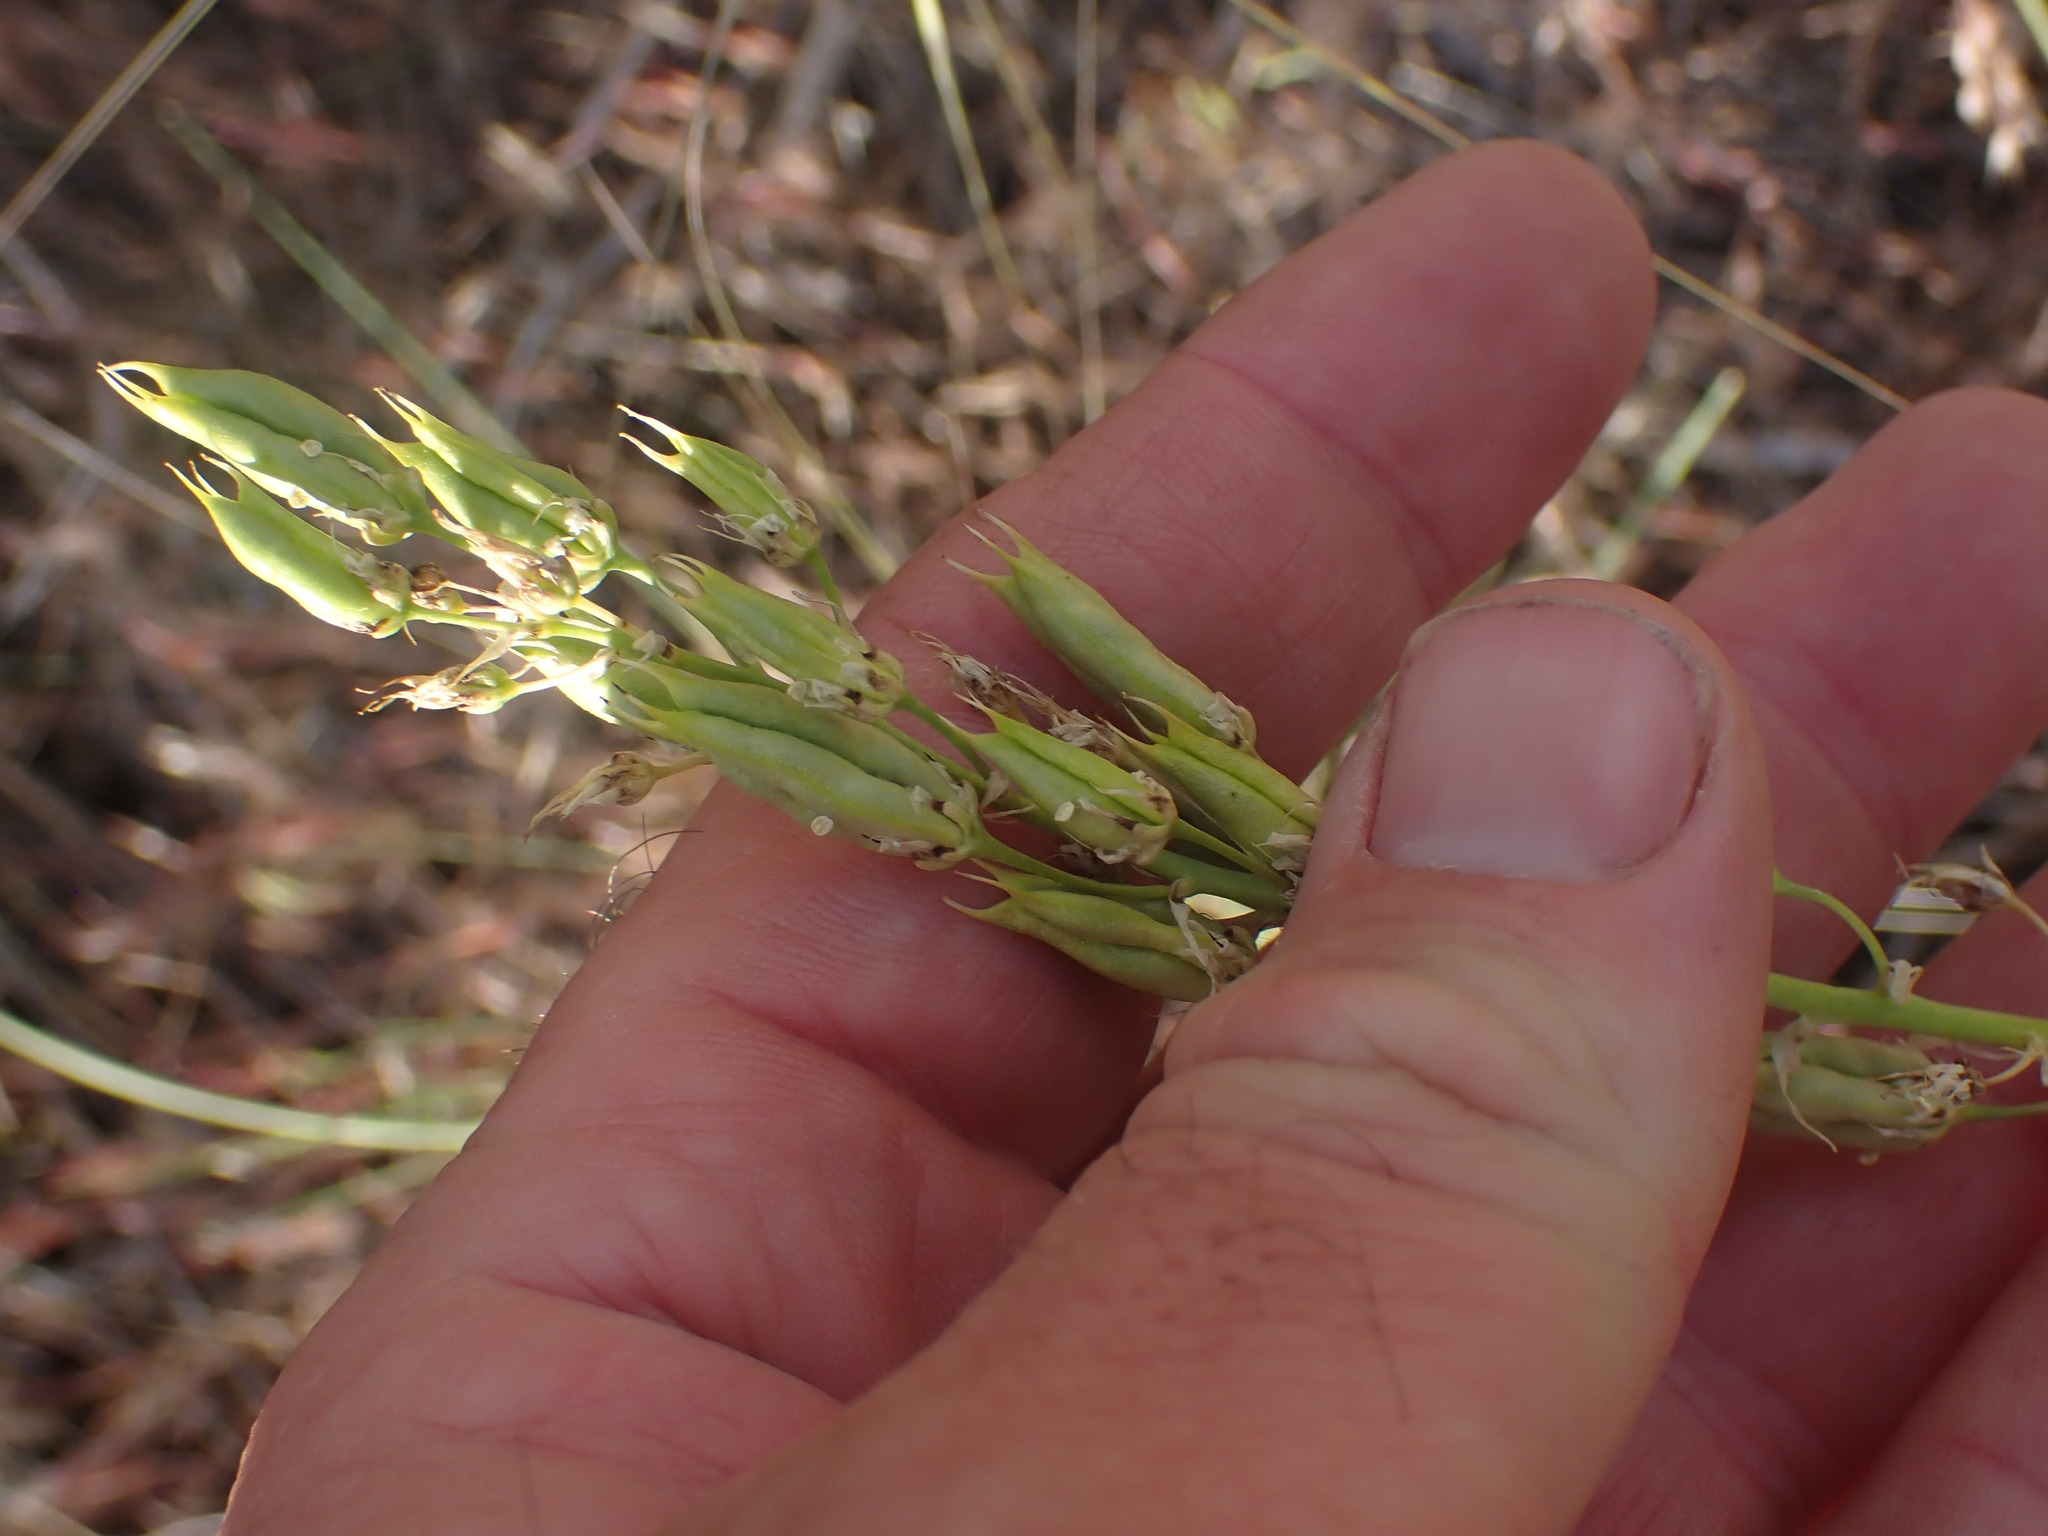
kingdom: Plantae
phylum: Tracheophyta
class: Liliopsida
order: Liliales
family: Melanthiaceae
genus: Toxicoscordion
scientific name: Toxicoscordion venenosum
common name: Meadow death camas
